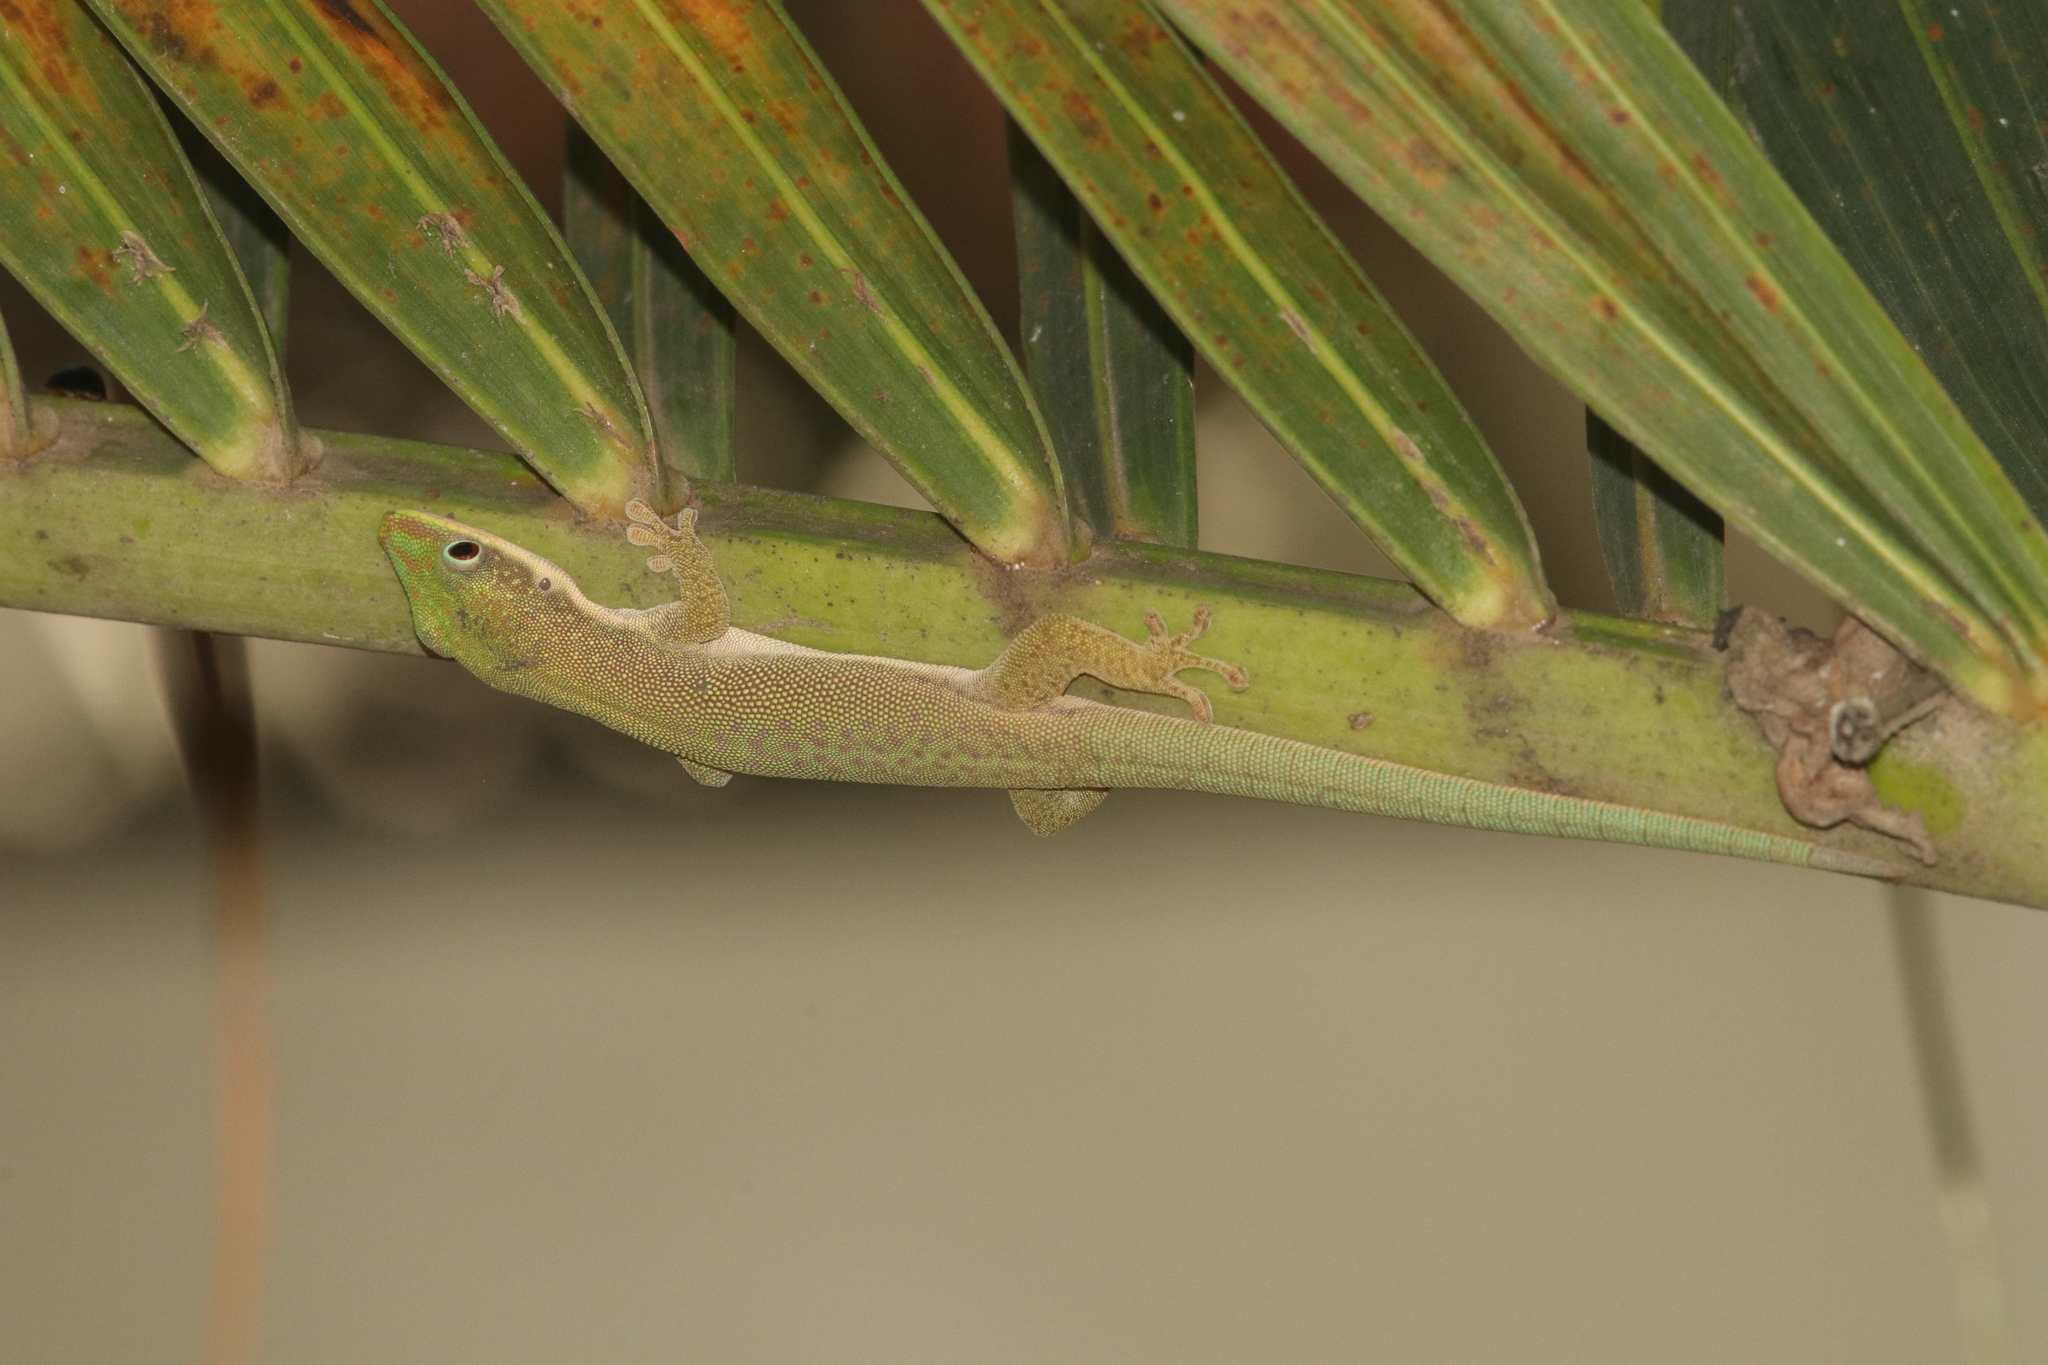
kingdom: Animalia
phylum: Chordata
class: Squamata
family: Gekkonidae
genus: Phelsuma
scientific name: Phelsuma dubia
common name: Zanzibar day gecko
